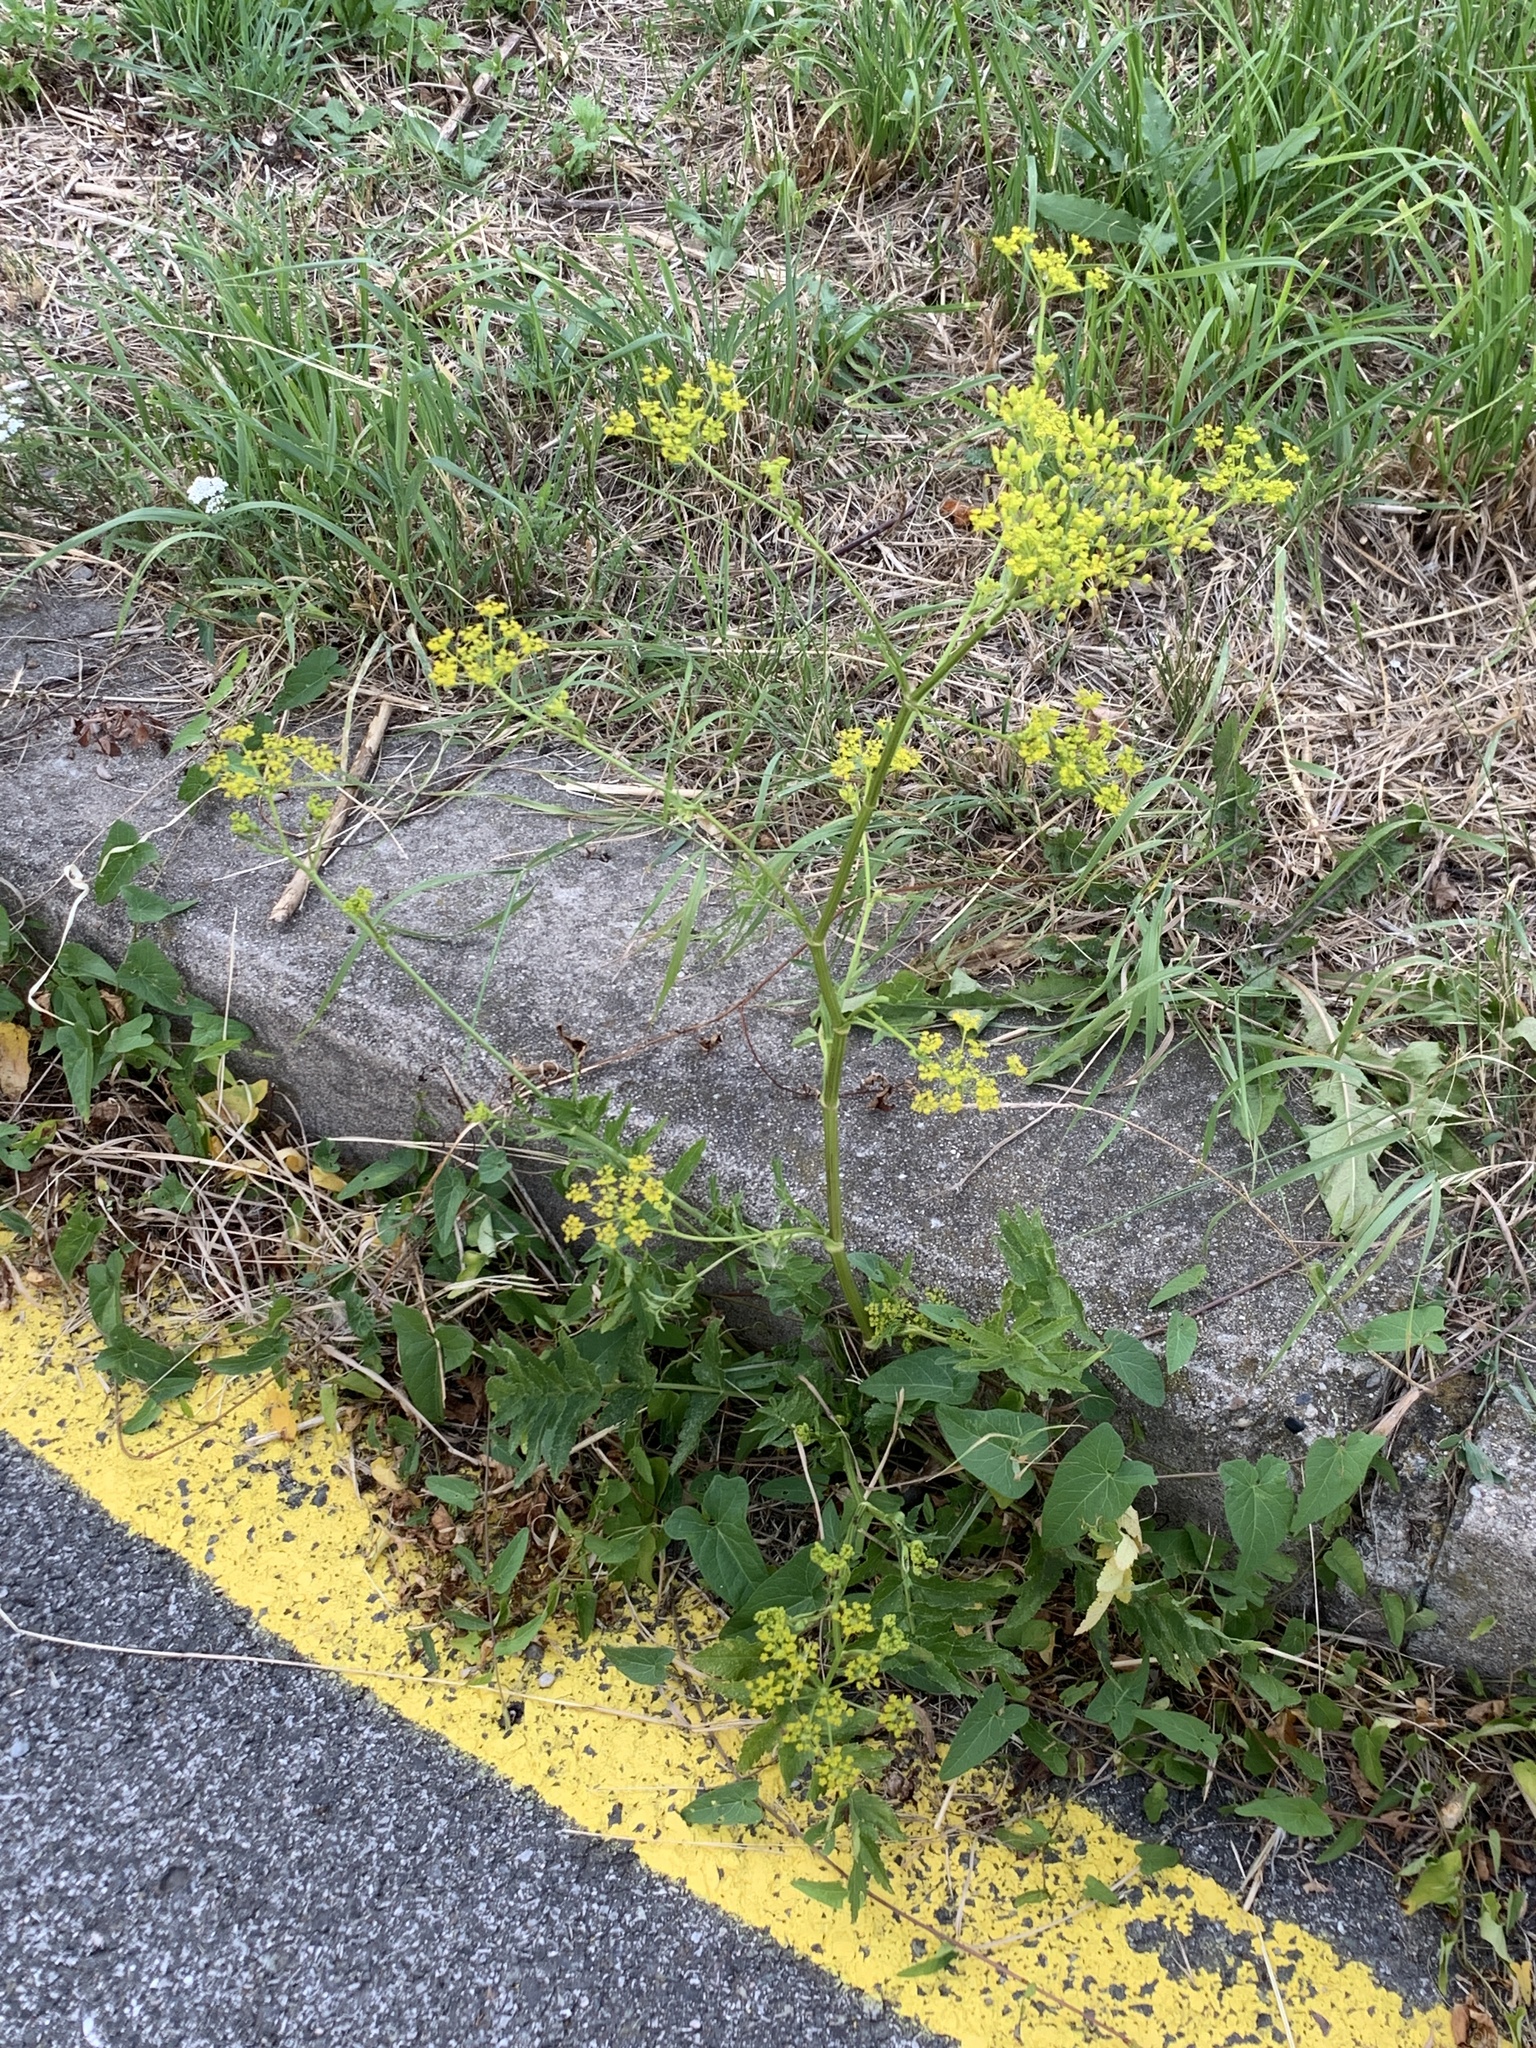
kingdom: Plantae
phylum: Tracheophyta
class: Magnoliopsida
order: Apiales
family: Apiaceae
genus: Pastinaca
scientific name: Pastinaca sativa
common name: Wild parsnip
